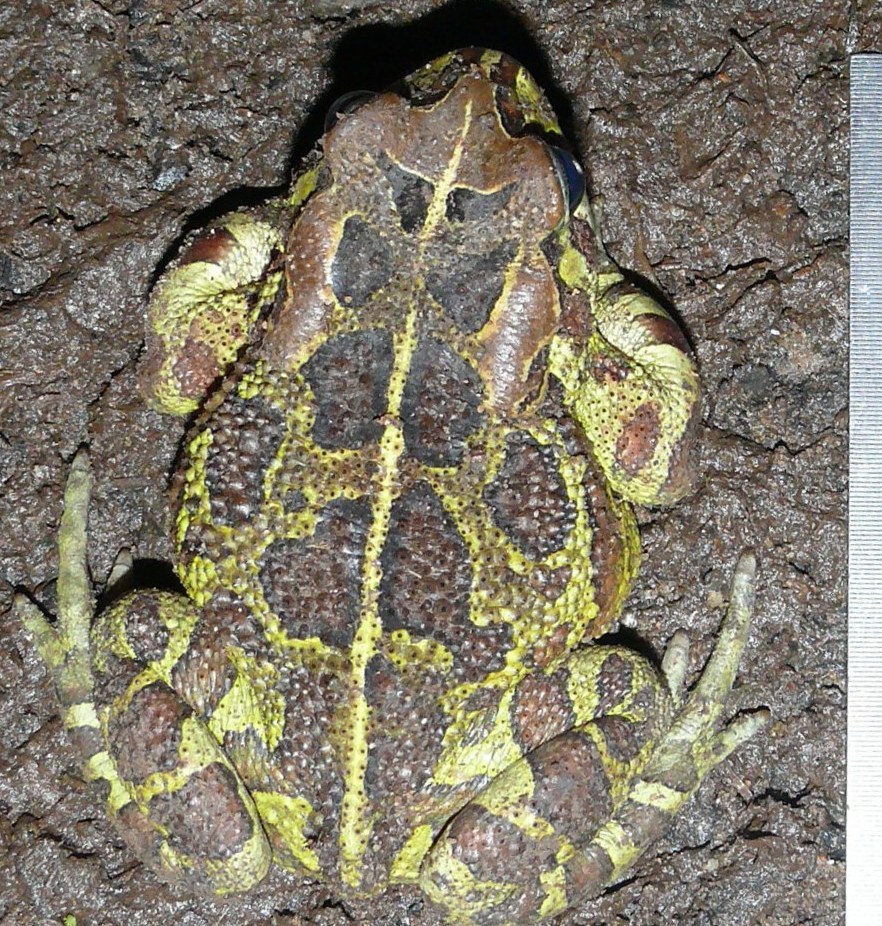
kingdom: Animalia
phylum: Chordata
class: Amphibia
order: Anura
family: Bufonidae
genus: Sclerophrys
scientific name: Sclerophrys pantherina
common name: Panther toad
